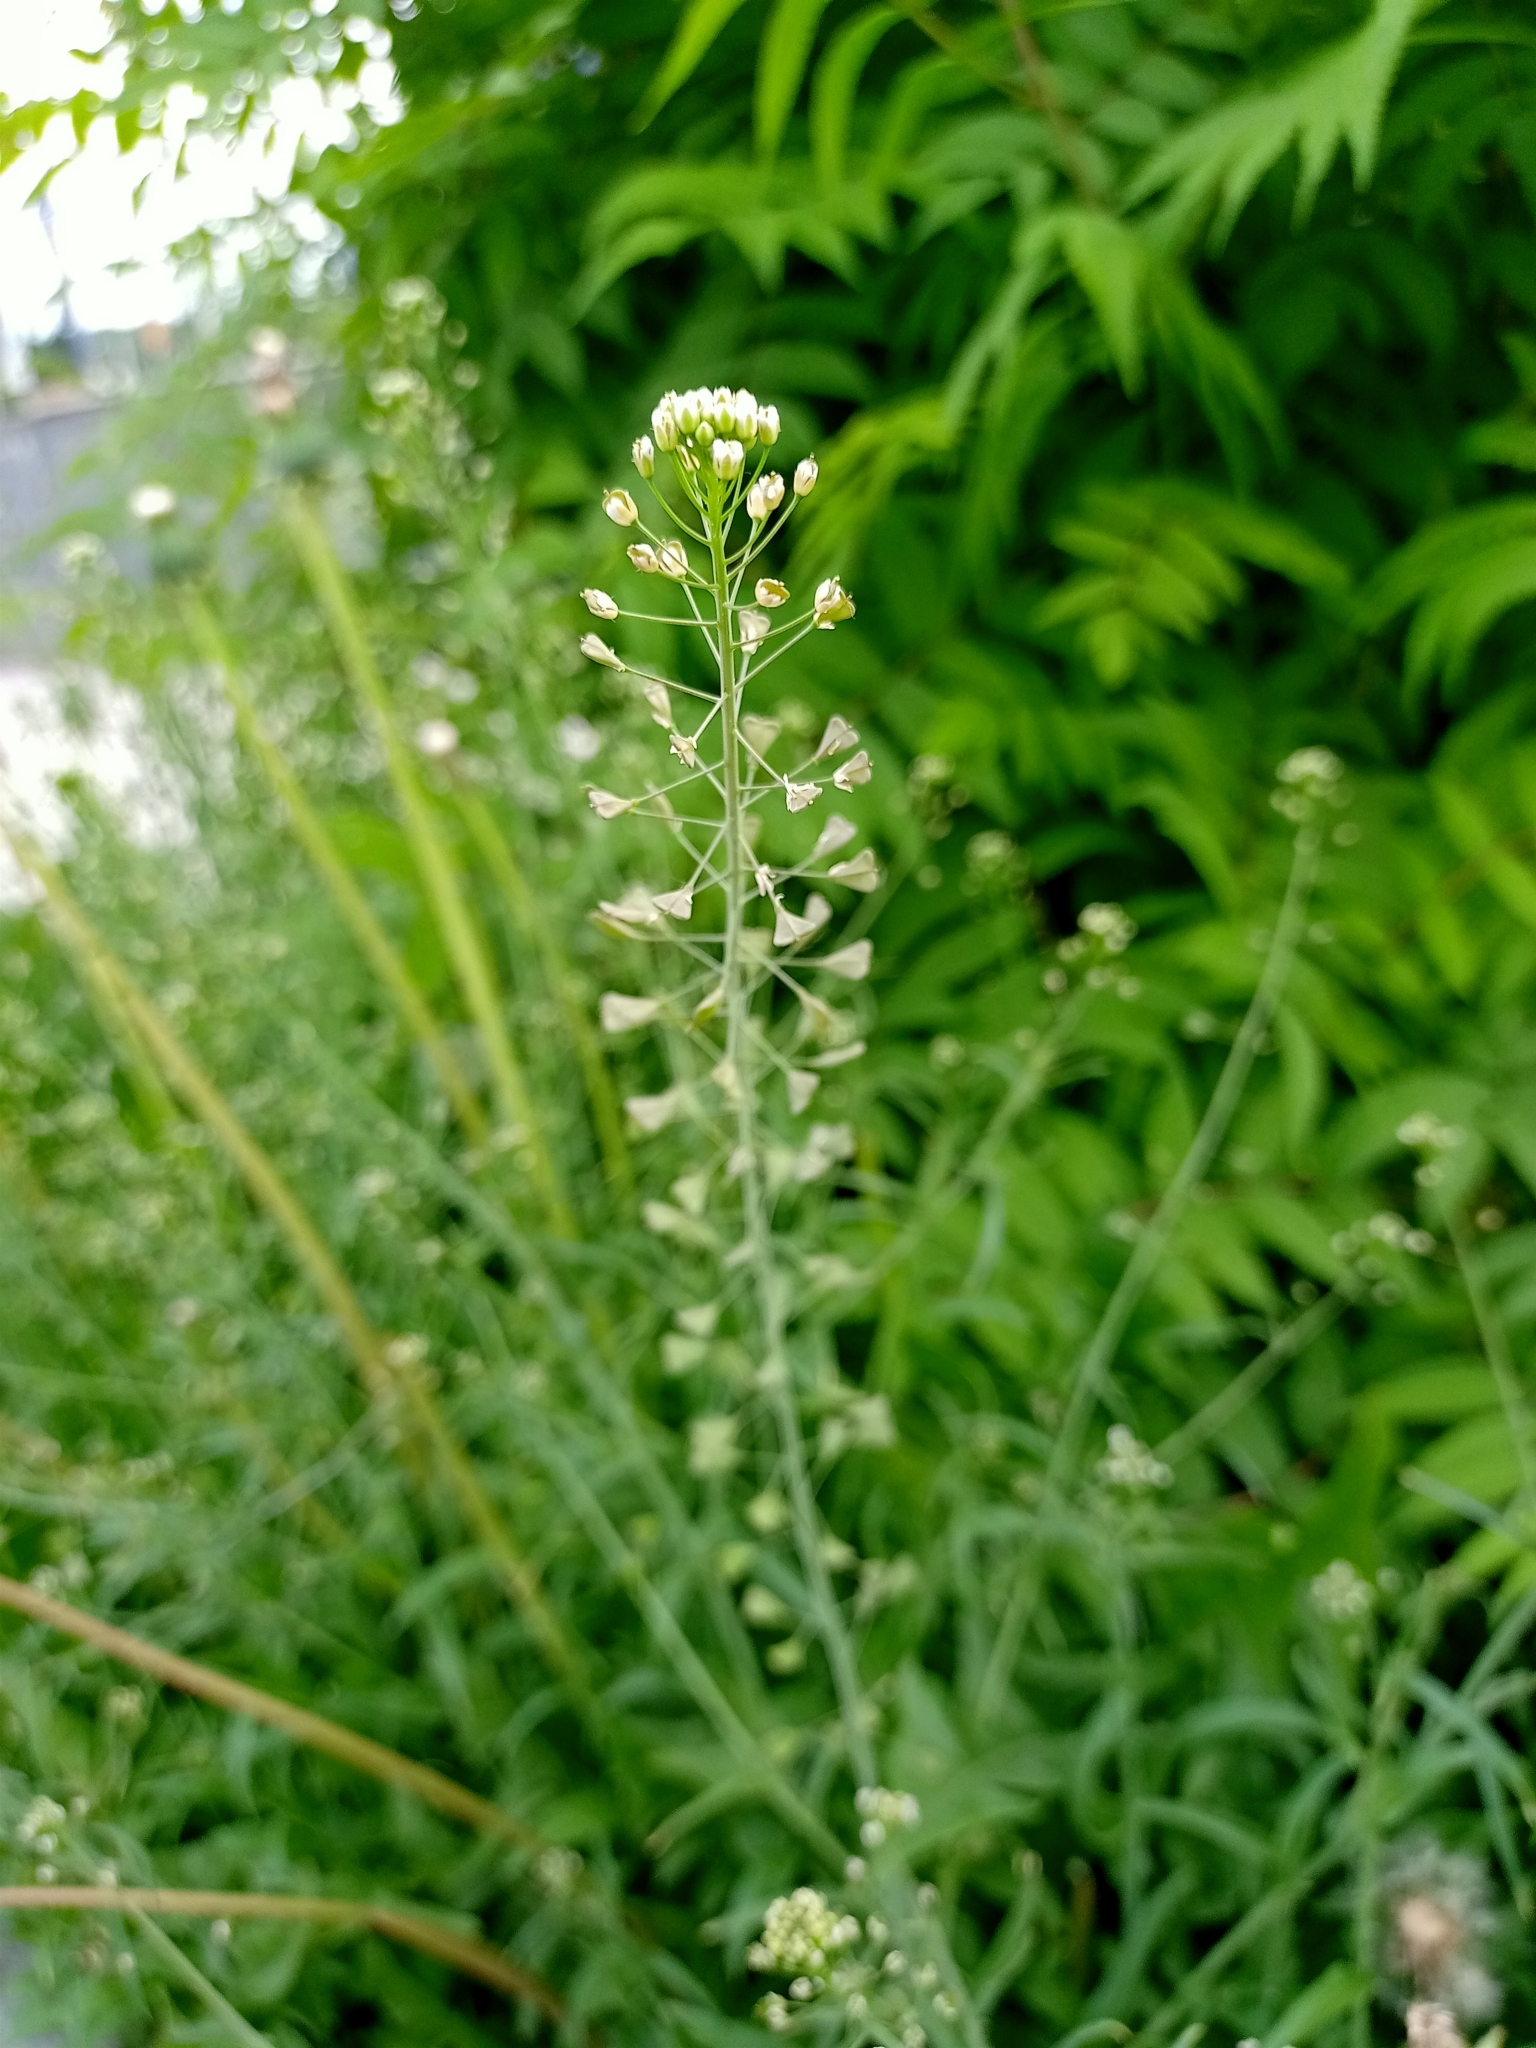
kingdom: Plantae
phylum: Tracheophyta
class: Magnoliopsida
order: Brassicales
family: Brassicaceae
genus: Capsella
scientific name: Capsella bursa-pastoris
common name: Shepherd's purse
